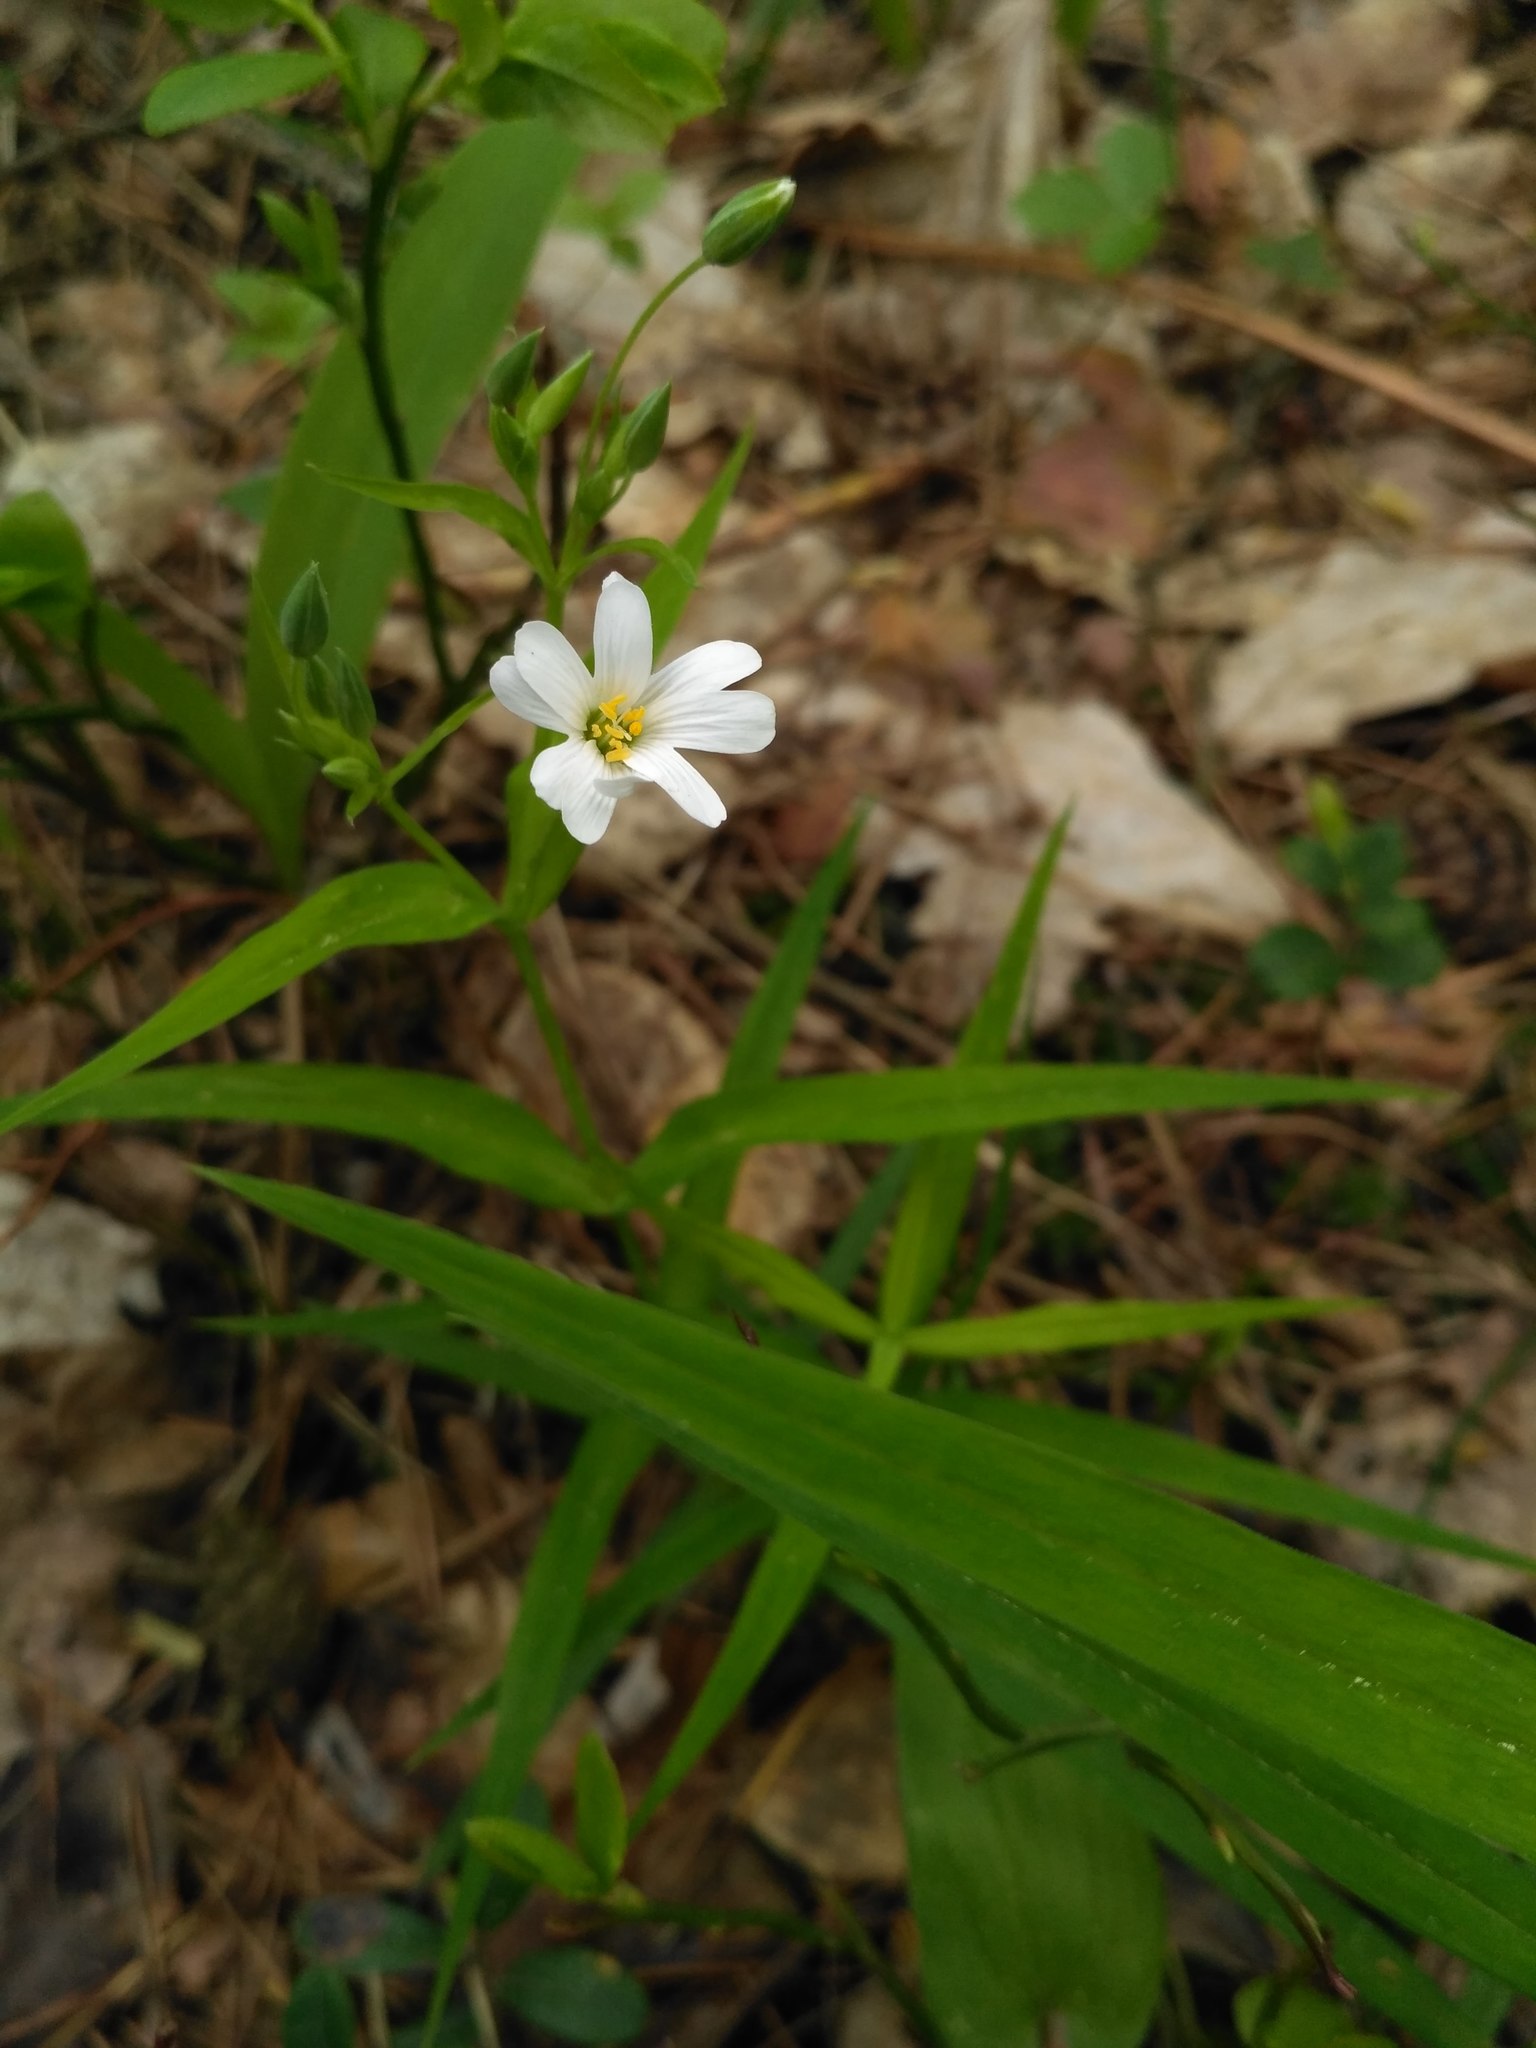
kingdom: Plantae
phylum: Tracheophyta
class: Magnoliopsida
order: Caryophyllales
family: Caryophyllaceae
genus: Rabelera
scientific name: Rabelera holostea
